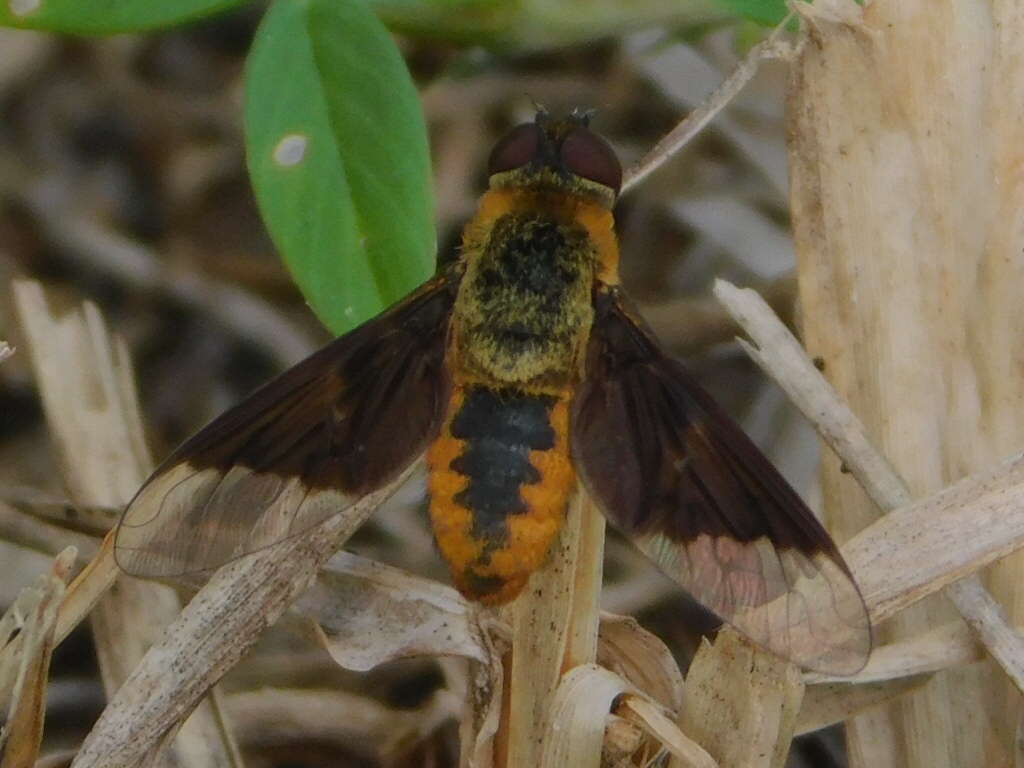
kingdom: Animalia
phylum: Arthropoda
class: Insecta
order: Diptera
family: Bombyliidae
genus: Chrysanthrax
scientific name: Chrysanthrax cypris
